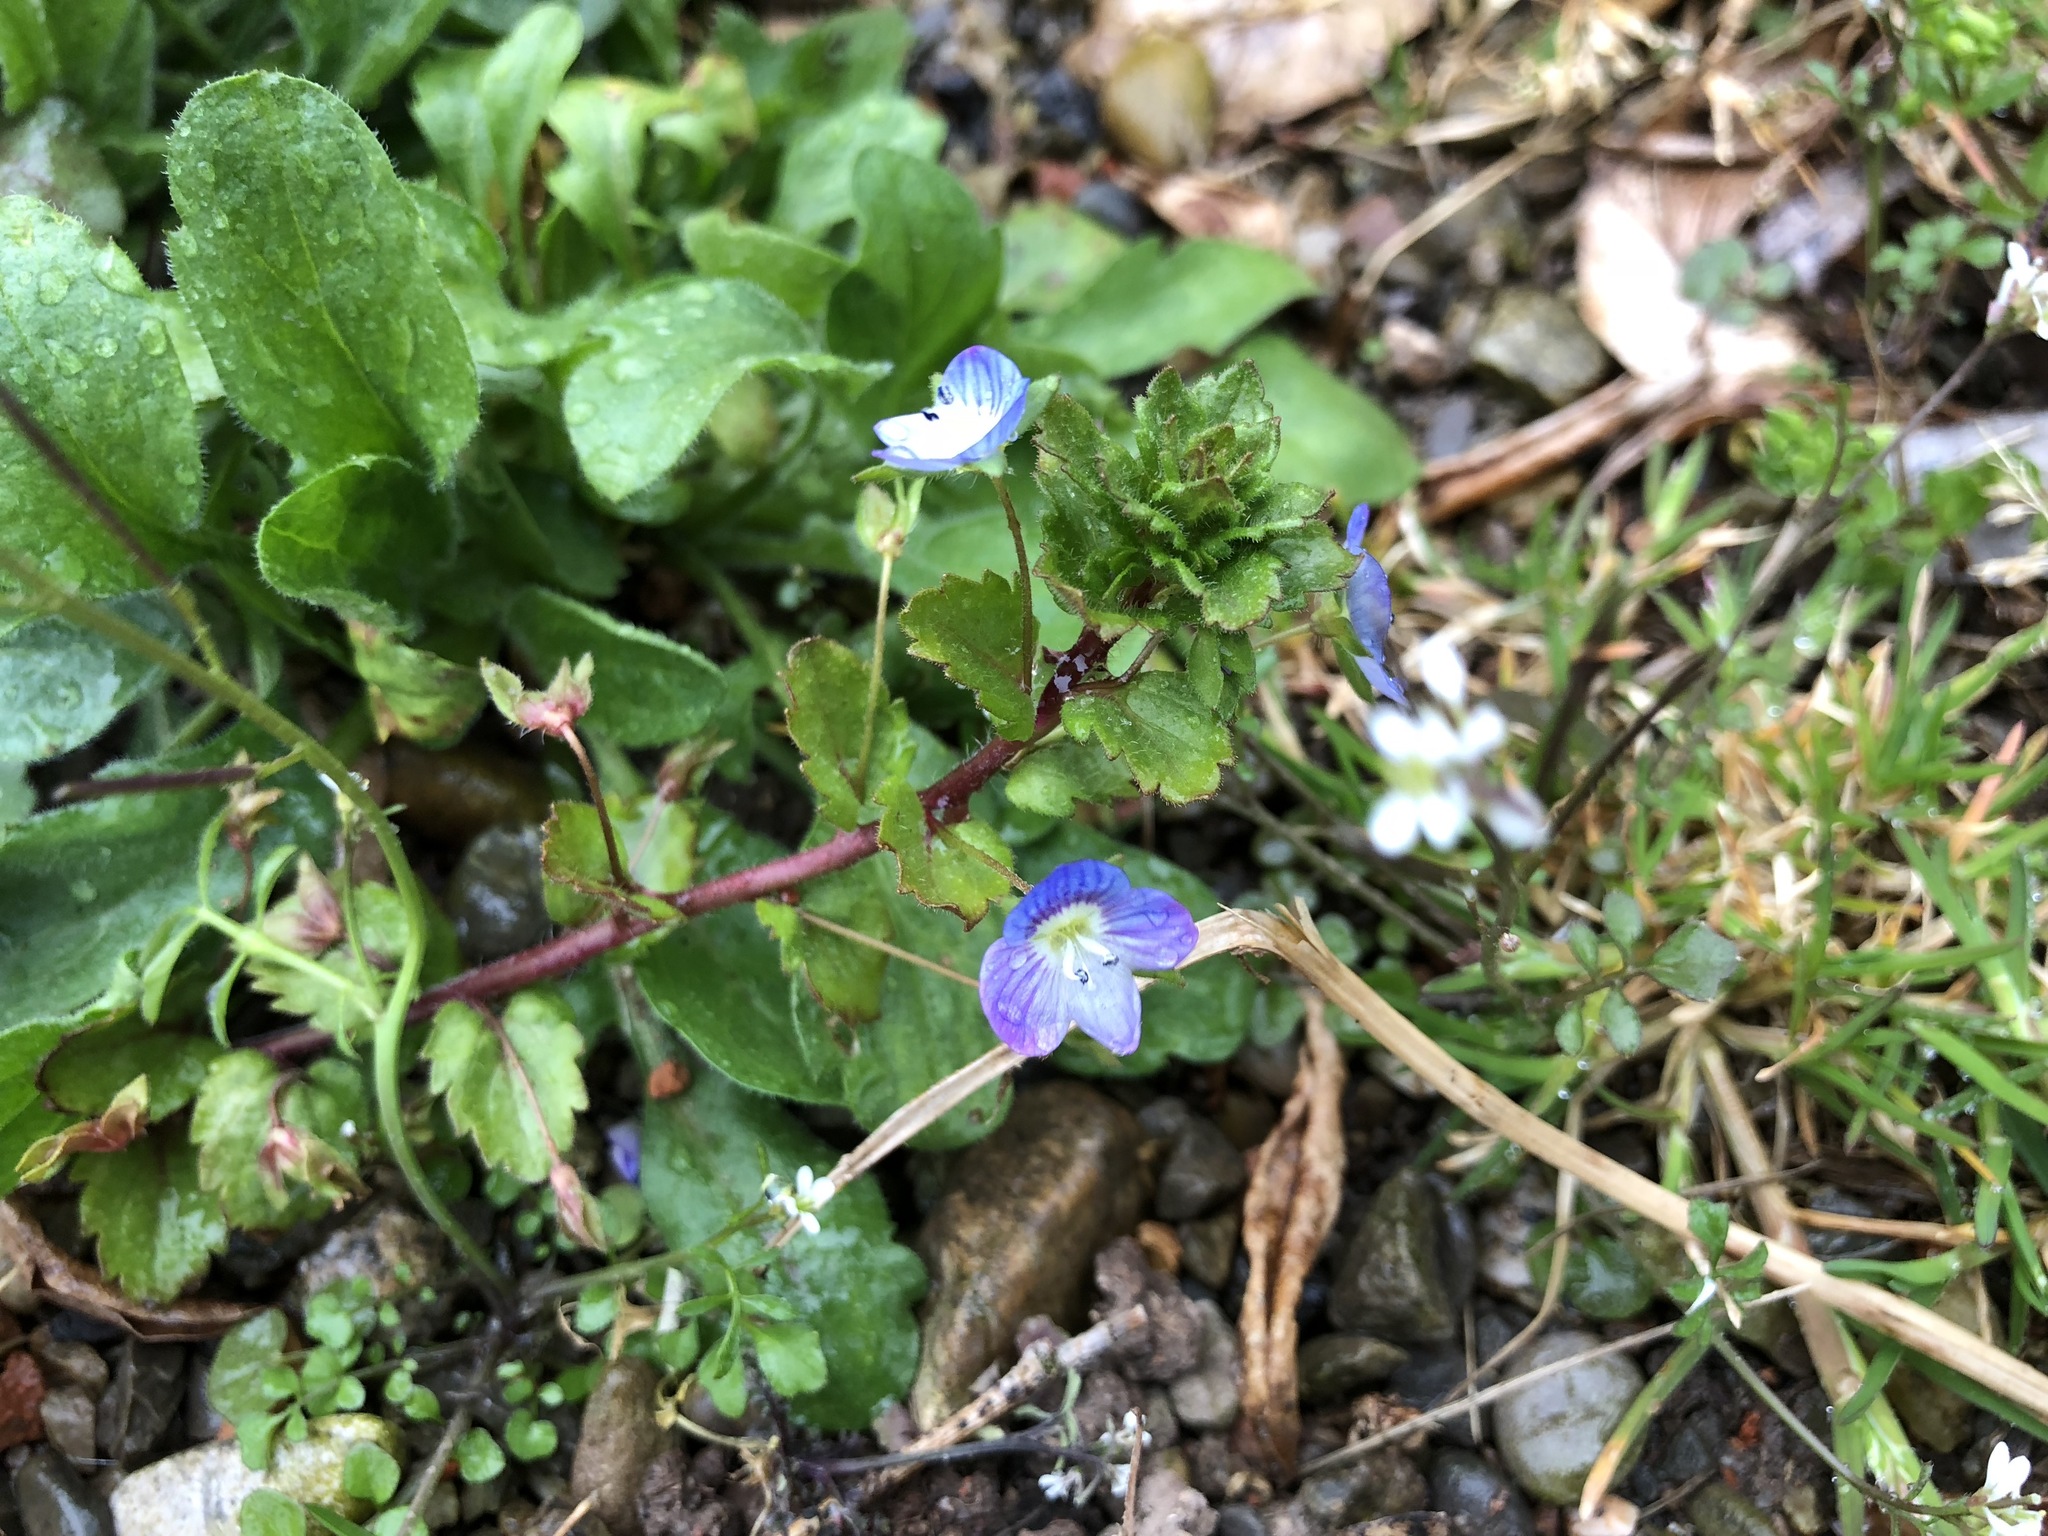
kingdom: Plantae
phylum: Tracheophyta
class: Magnoliopsida
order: Lamiales
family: Plantaginaceae
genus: Veronica
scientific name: Veronica persica
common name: Common field-speedwell
